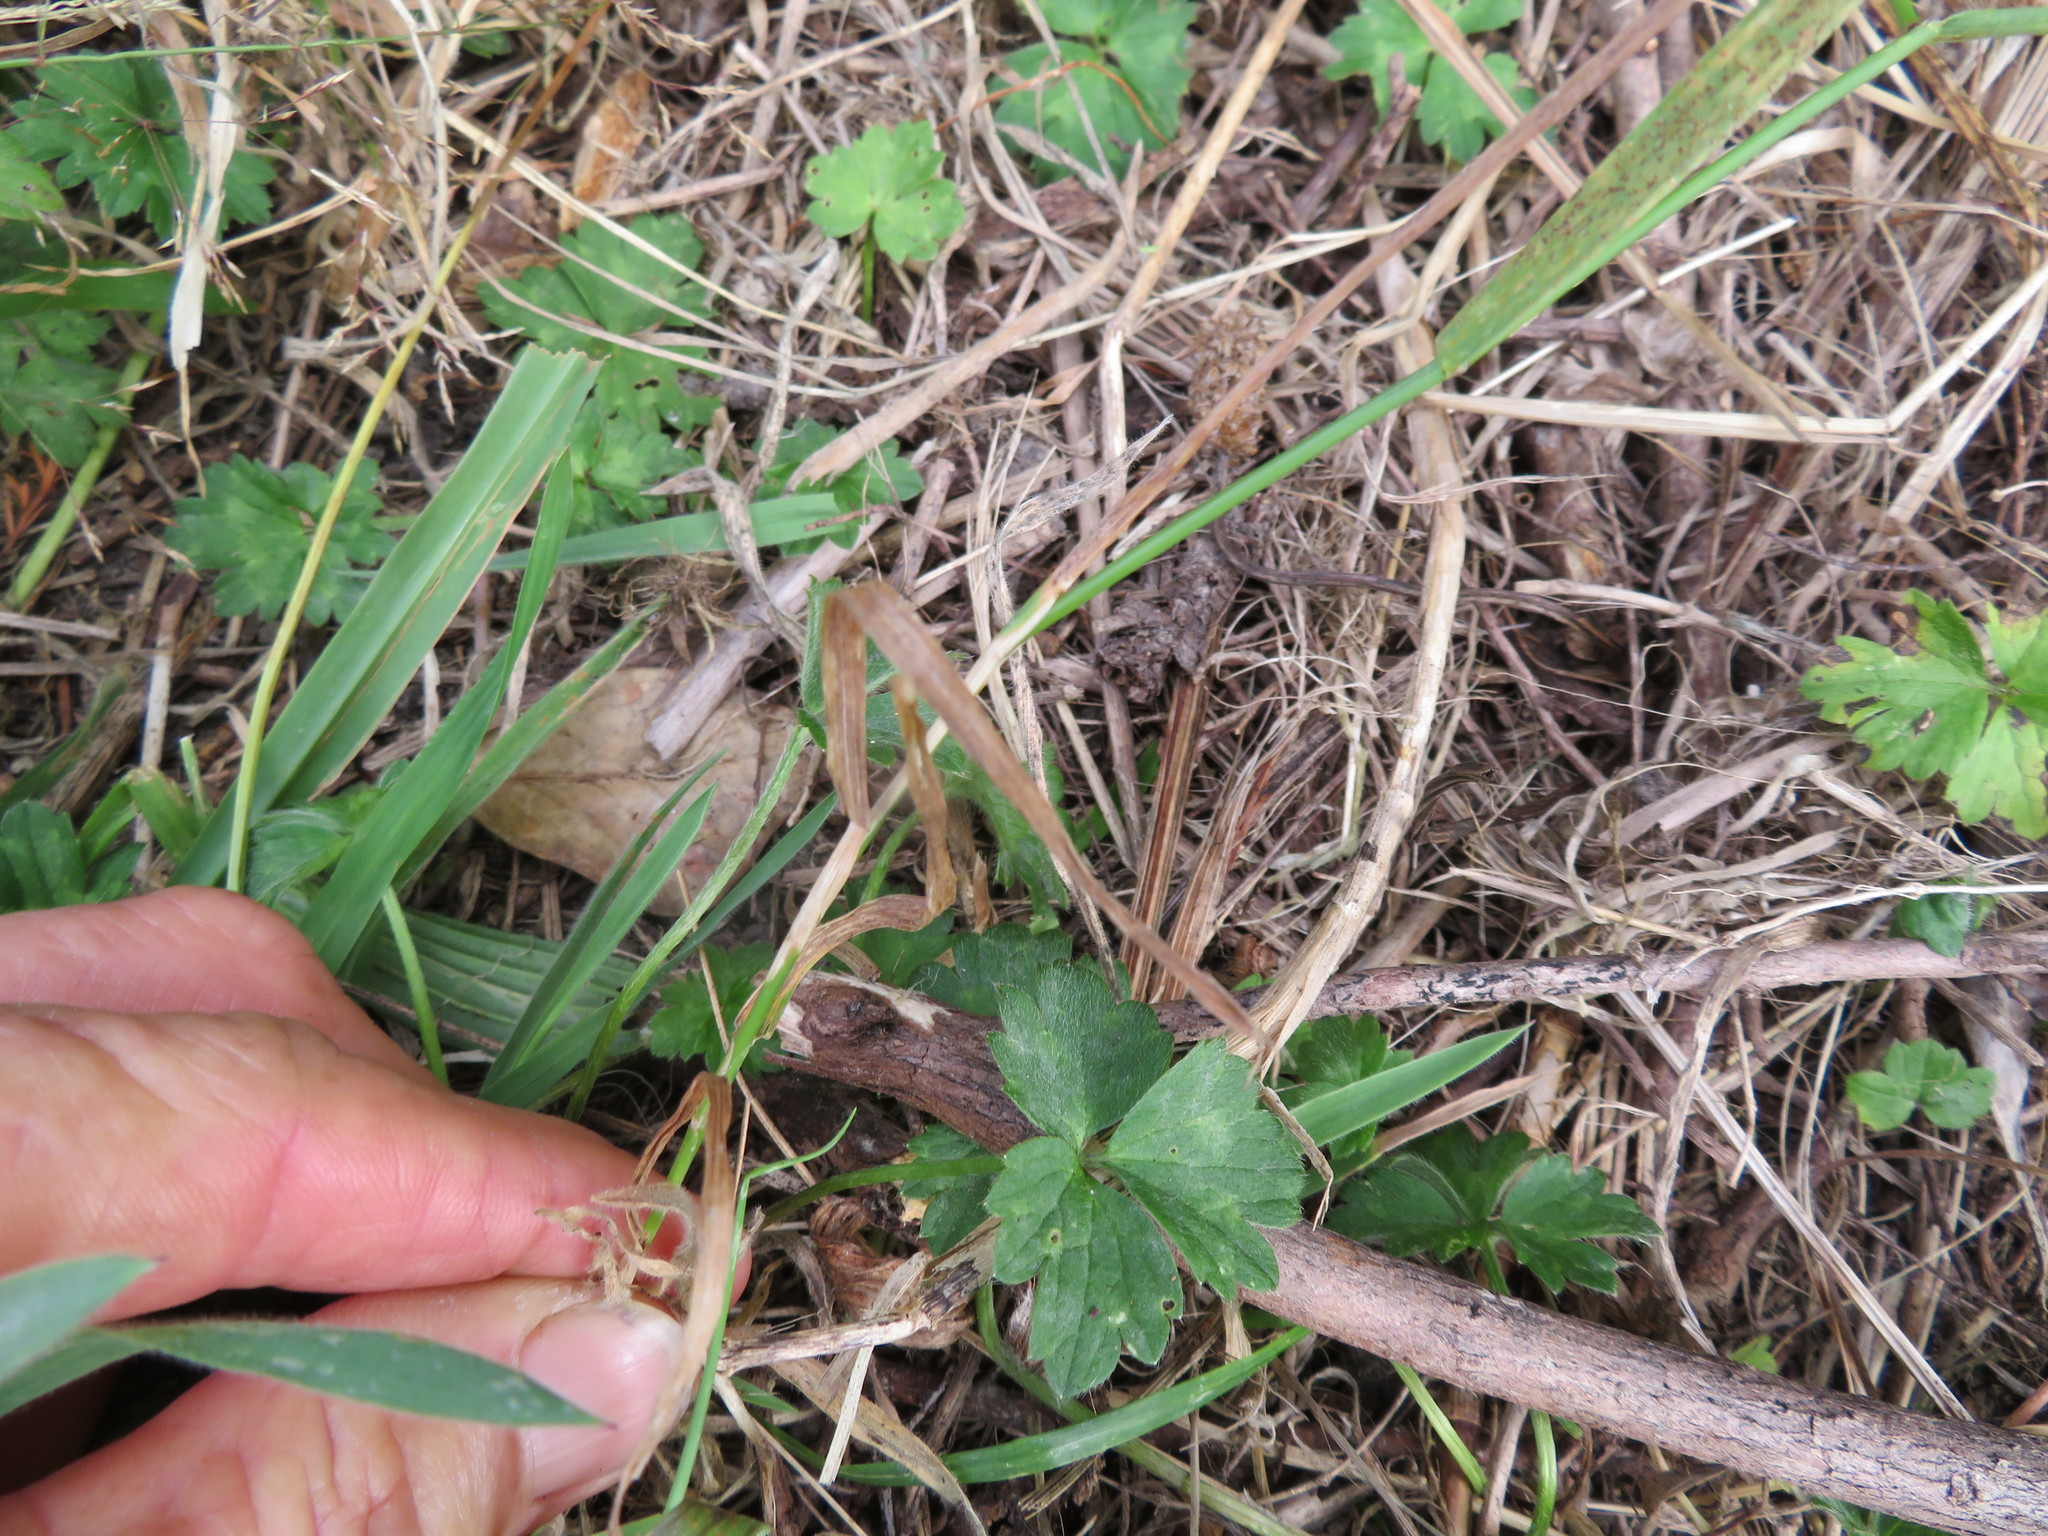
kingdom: Plantae
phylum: Tracheophyta
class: Liliopsida
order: Poales
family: Poaceae
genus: Agrostis
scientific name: Agrostis capillaris
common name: Colonial bentgrass
